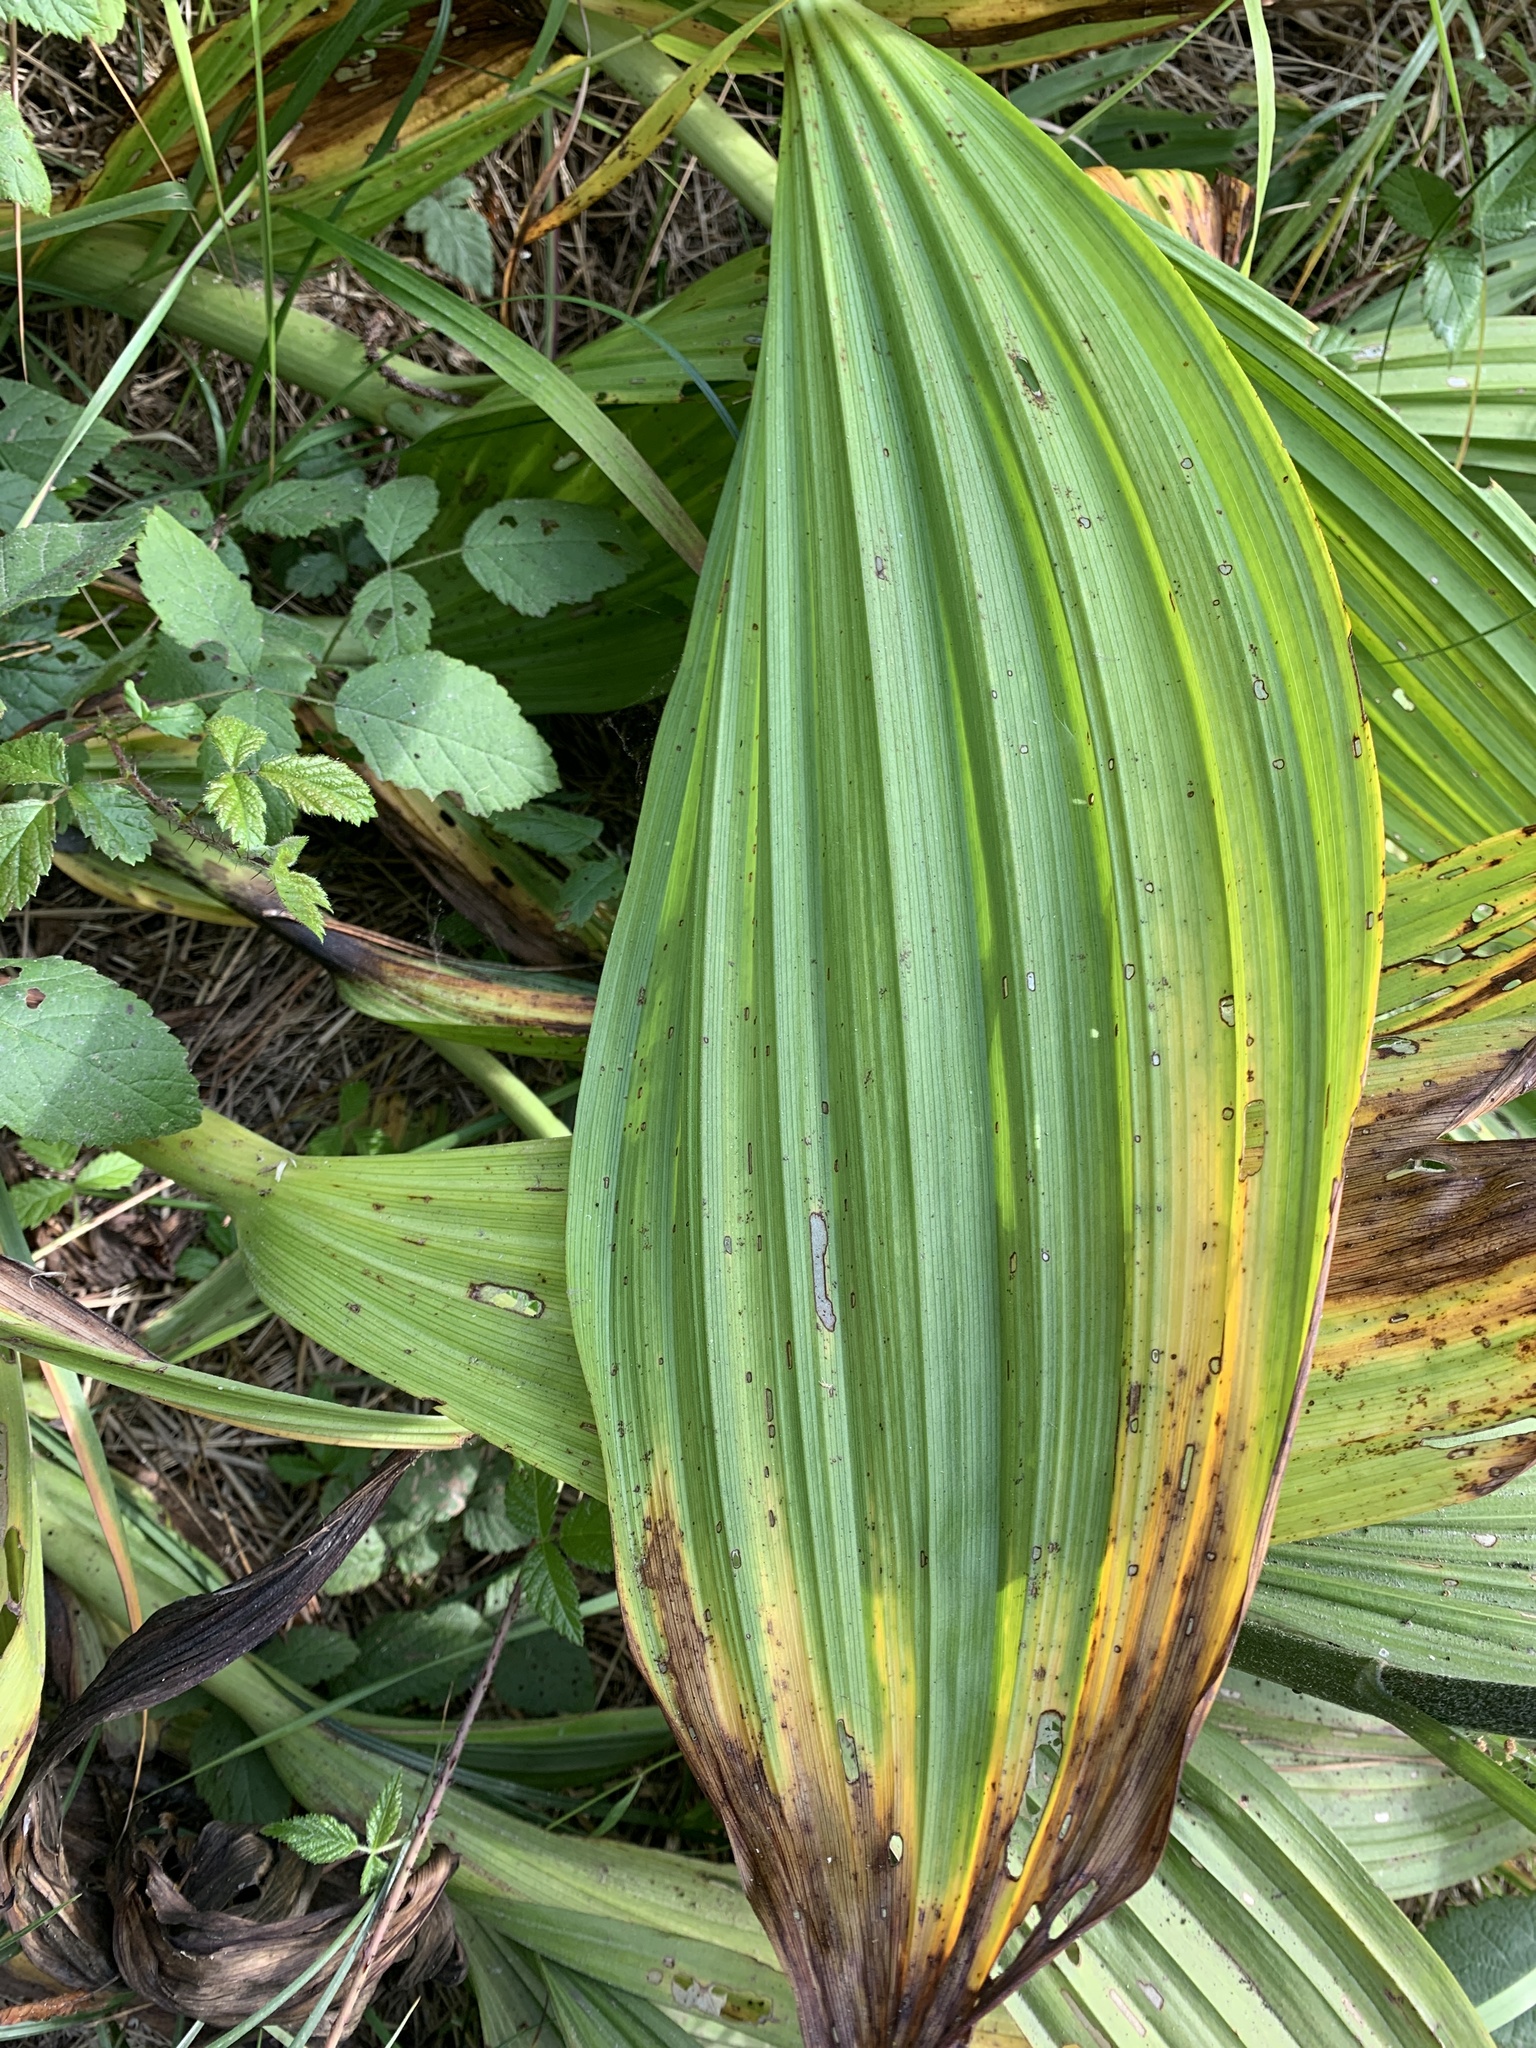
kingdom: Plantae
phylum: Tracheophyta
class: Liliopsida
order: Liliales
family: Melanthiaceae
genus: Veratrum
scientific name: Veratrum fimbriatum
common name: Fringe false hellobore
